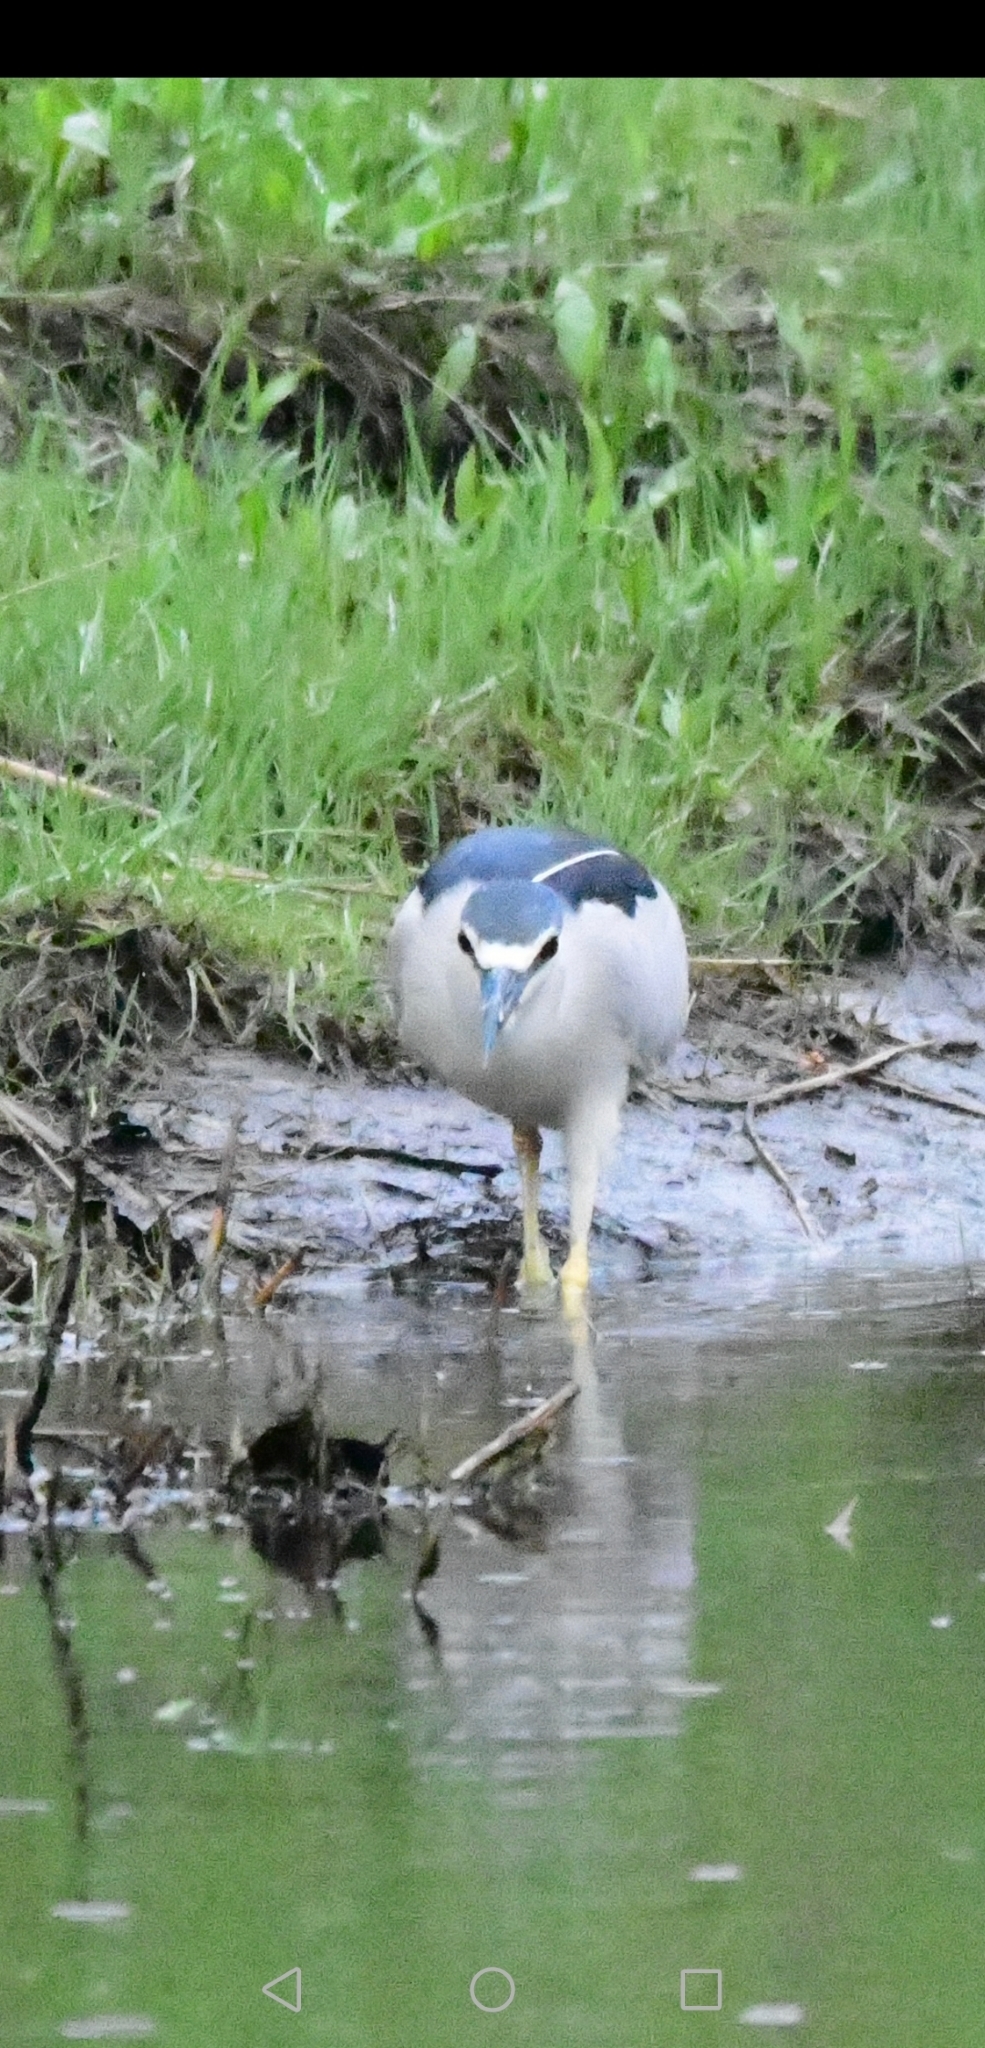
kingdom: Animalia
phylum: Chordata
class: Aves
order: Pelecaniformes
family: Ardeidae
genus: Nycticorax
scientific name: Nycticorax nycticorax
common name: Black-crowned night heron
